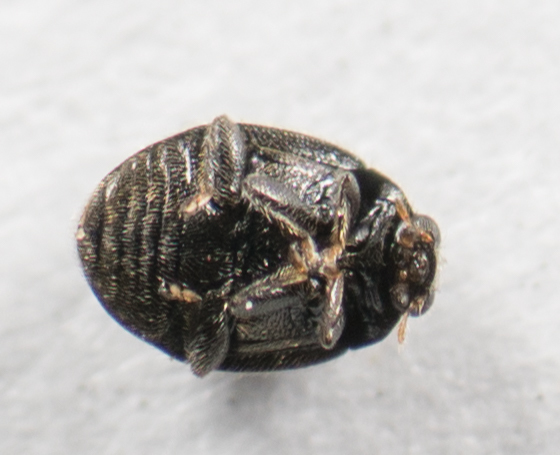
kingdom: Animalia
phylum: Arthropoda
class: Insecta
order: Coleoptera
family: Coccinellidae
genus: Stethorus
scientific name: Stethorus punctum
